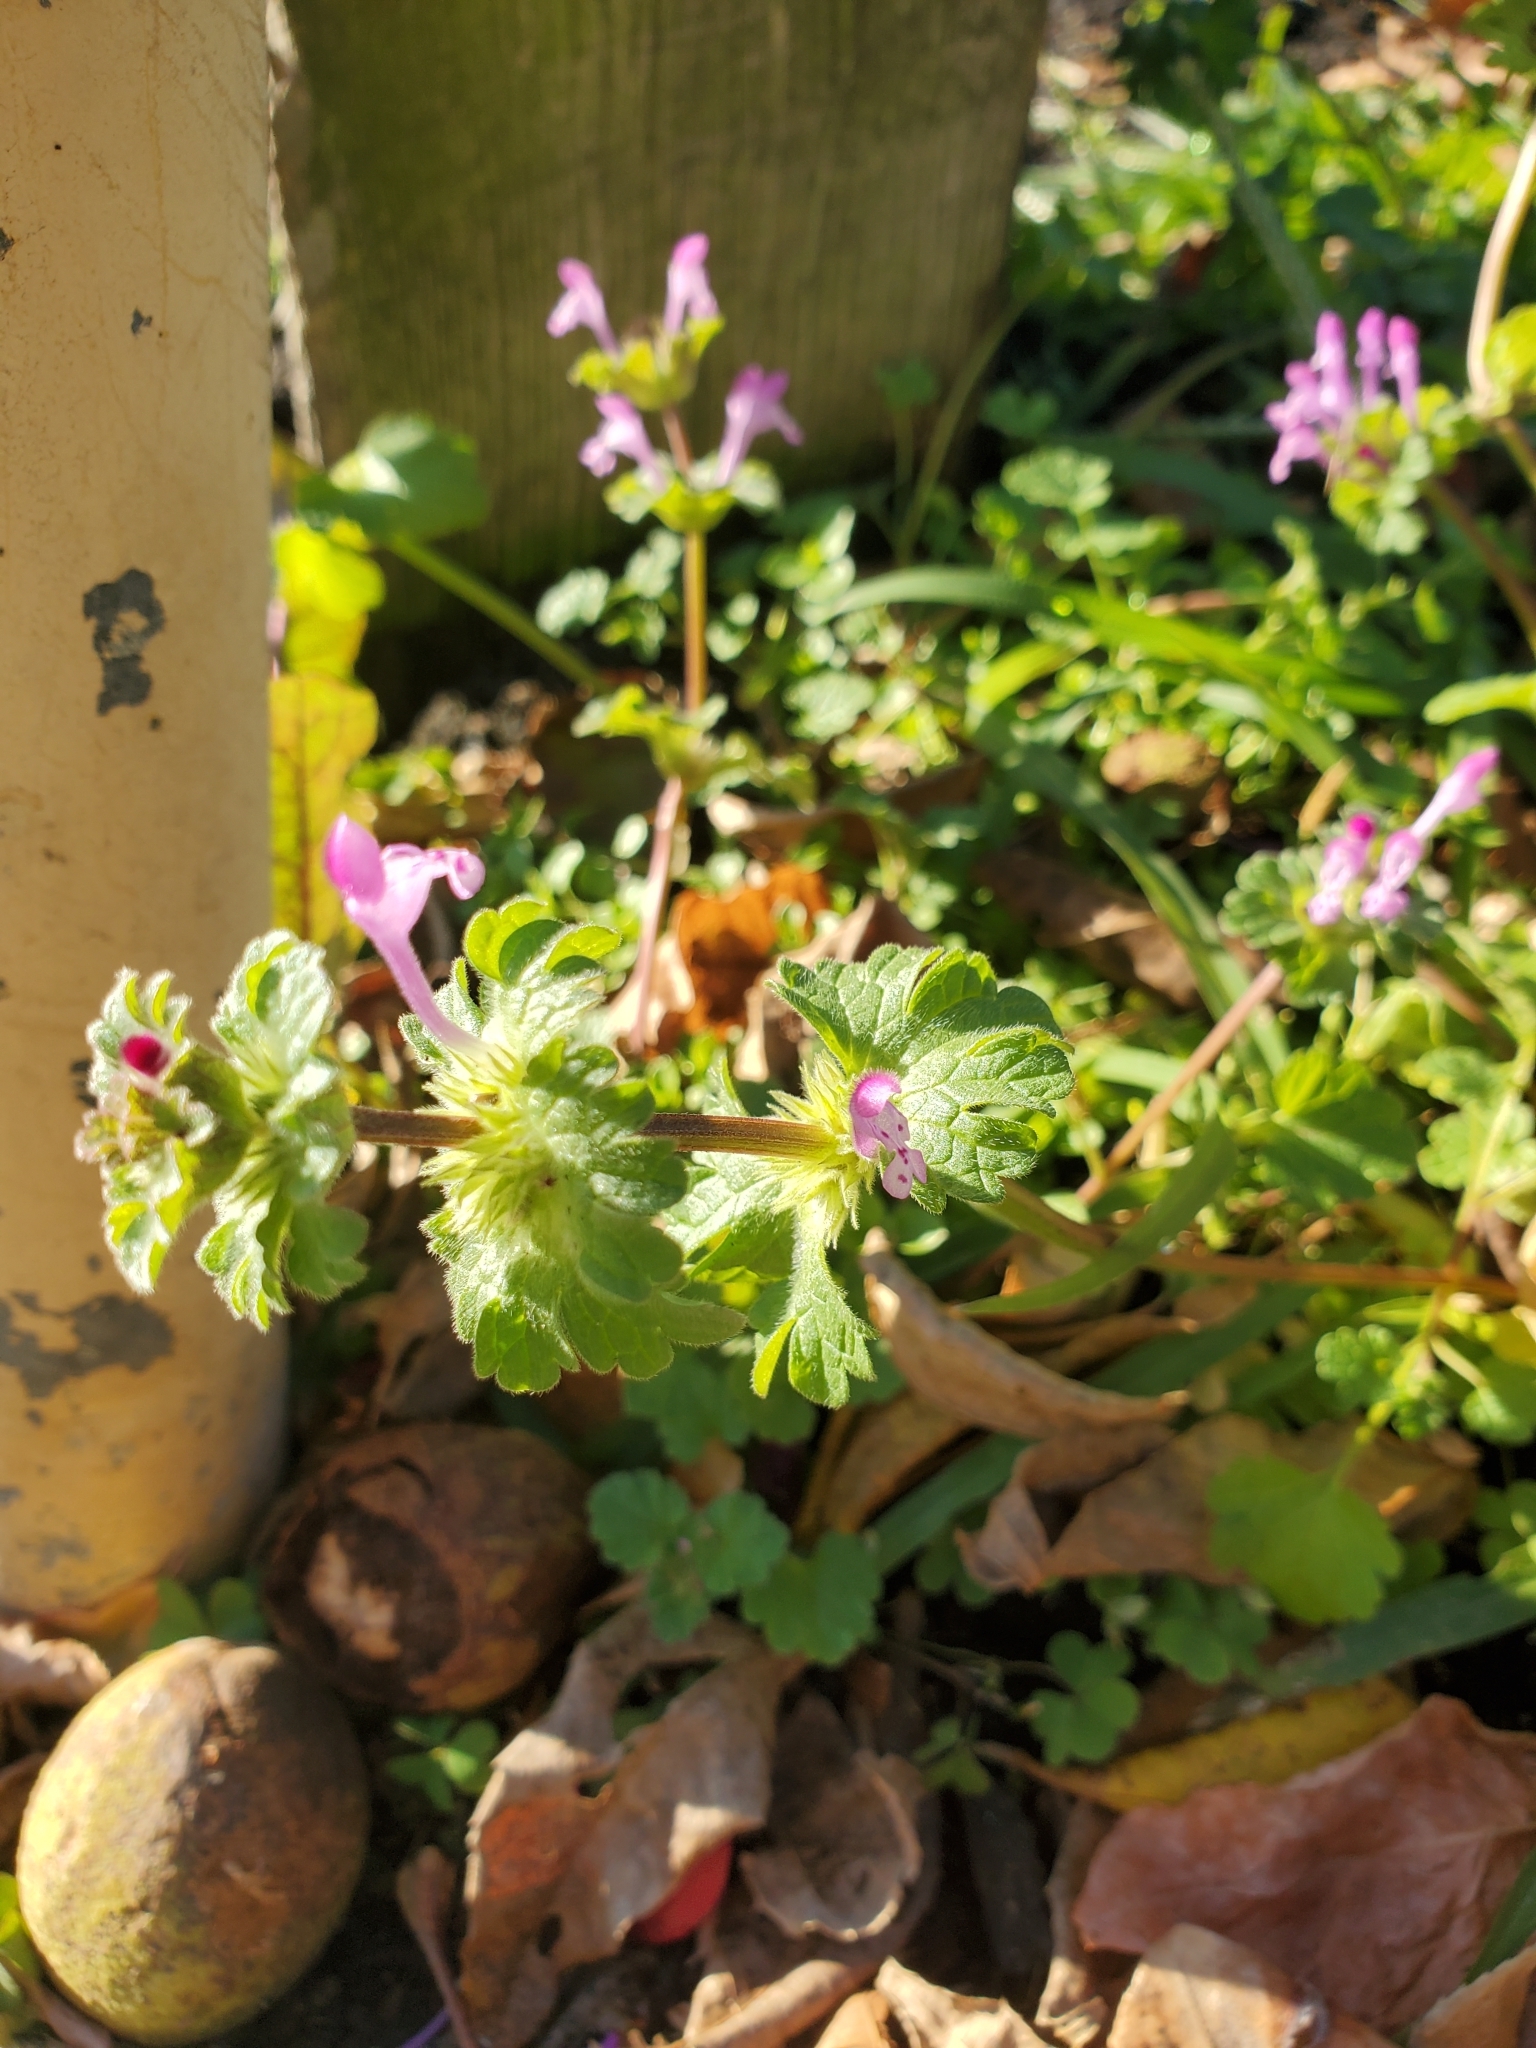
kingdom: Plantae
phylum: Tracheophyta
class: Magnoliopsida
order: Lamiales
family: Lamiaceae
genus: Lamium
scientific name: Lamium amplexicaule
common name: Henbit dead-nettle
